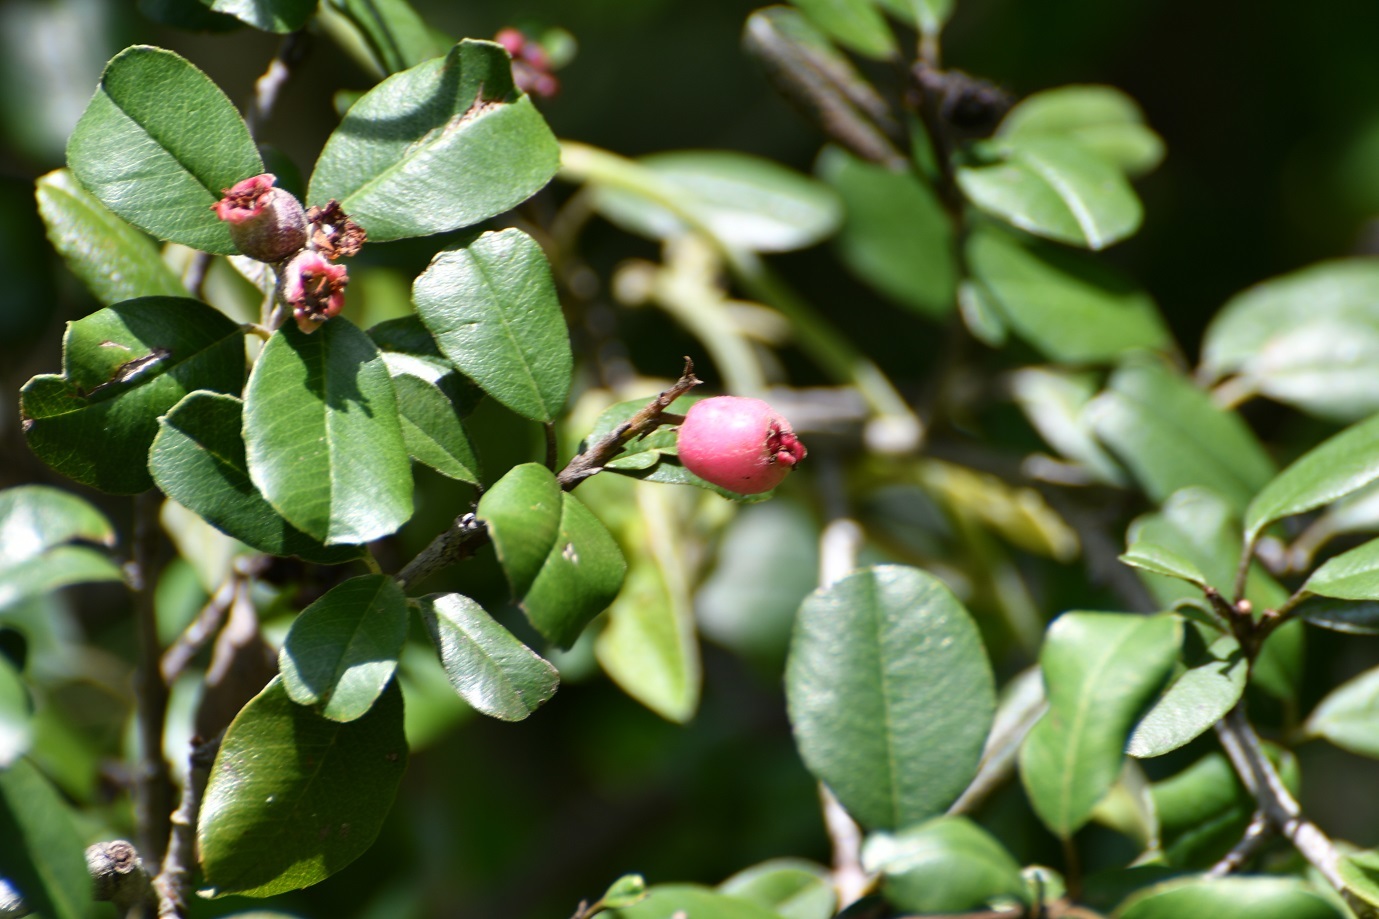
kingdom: Plantae
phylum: Tracheophyta
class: Magnoliopsida
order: Rosales
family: Rosaceae
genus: Malacomeles
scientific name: Malacomeles denticulata
